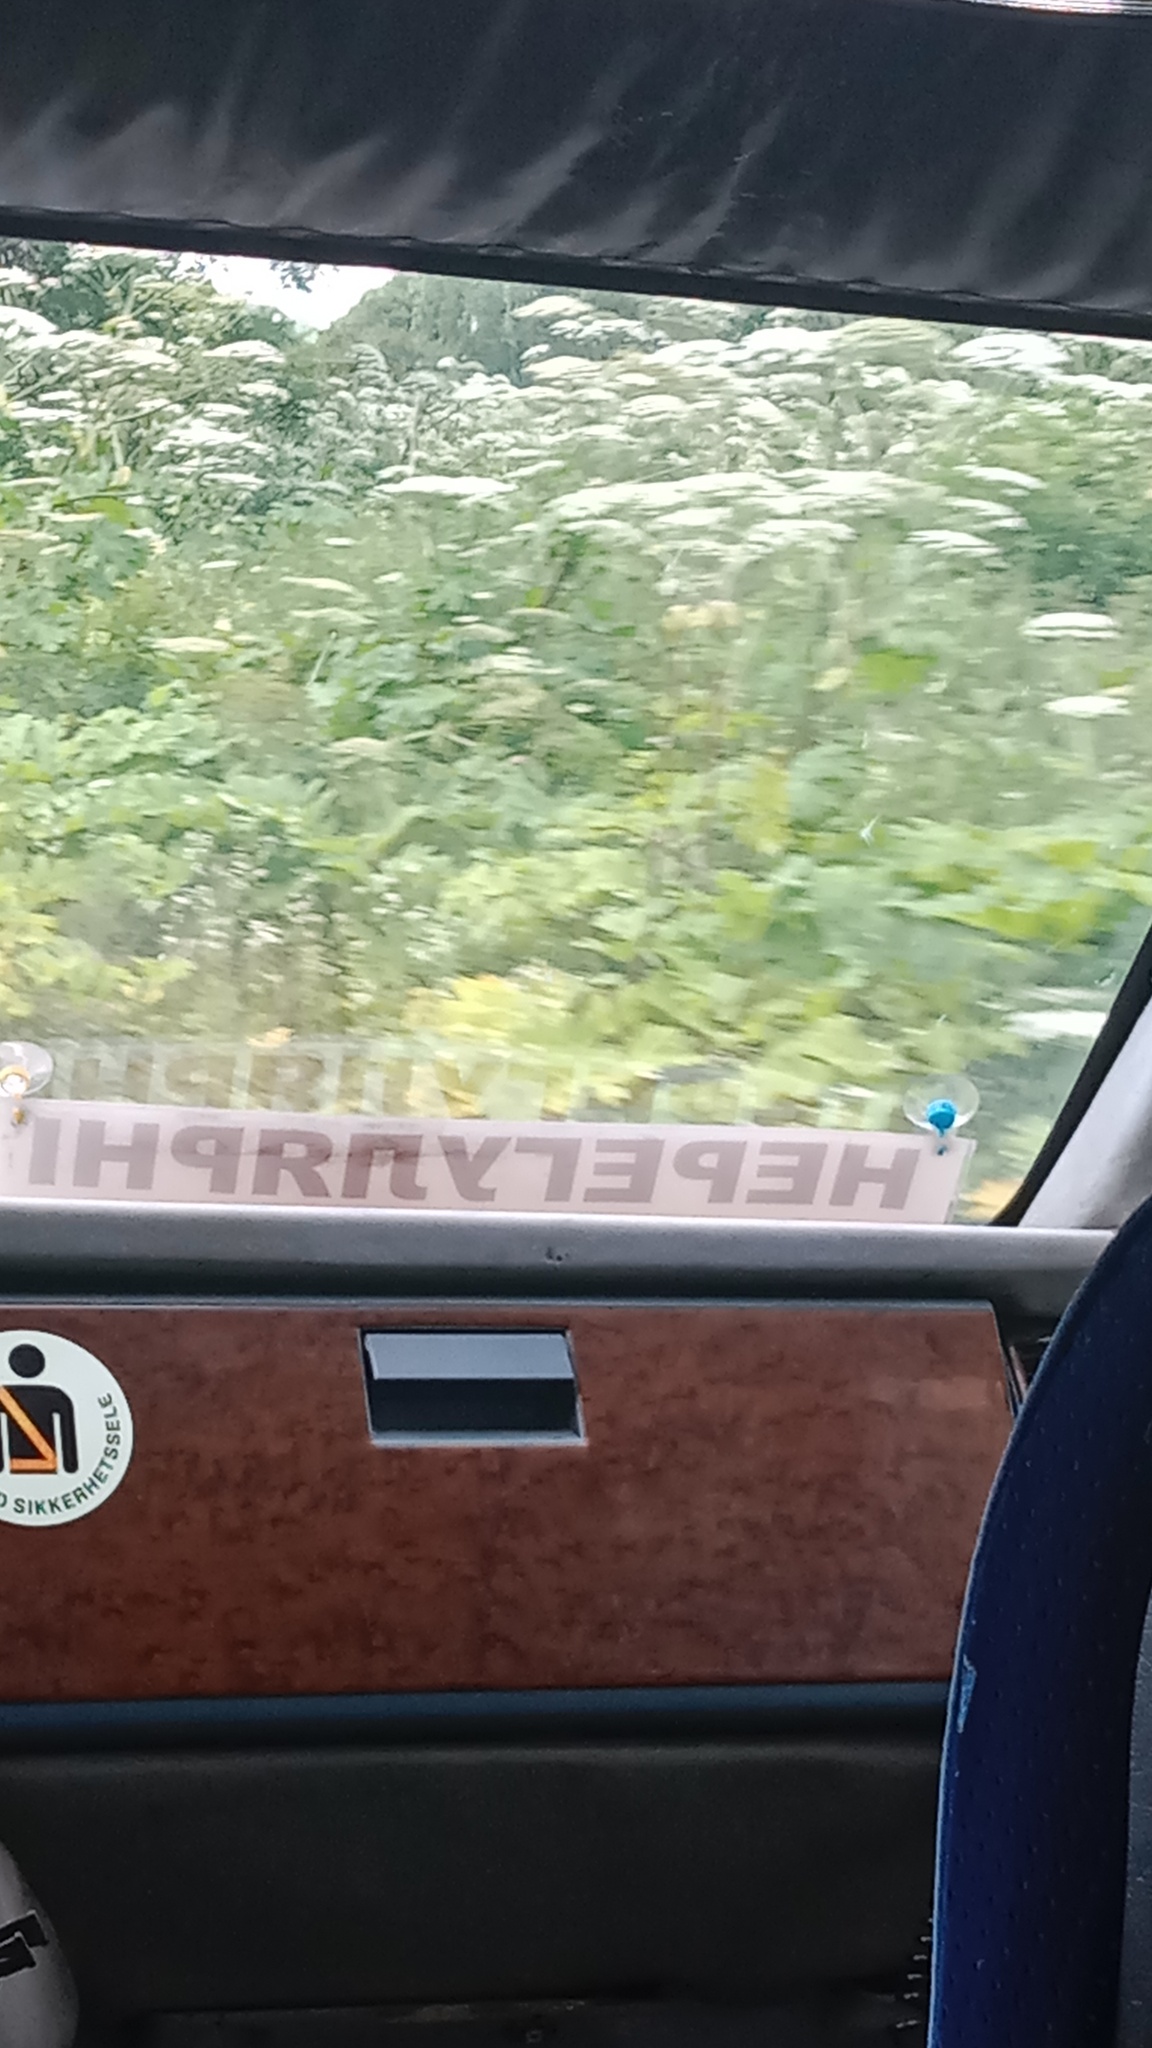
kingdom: Plantae
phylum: Tracheophyta
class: Magnoliopsida
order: Apiales
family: Apiaceae
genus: Heracleum
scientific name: Heracleum sosnowskyi
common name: Sosnowsky's hogweed
